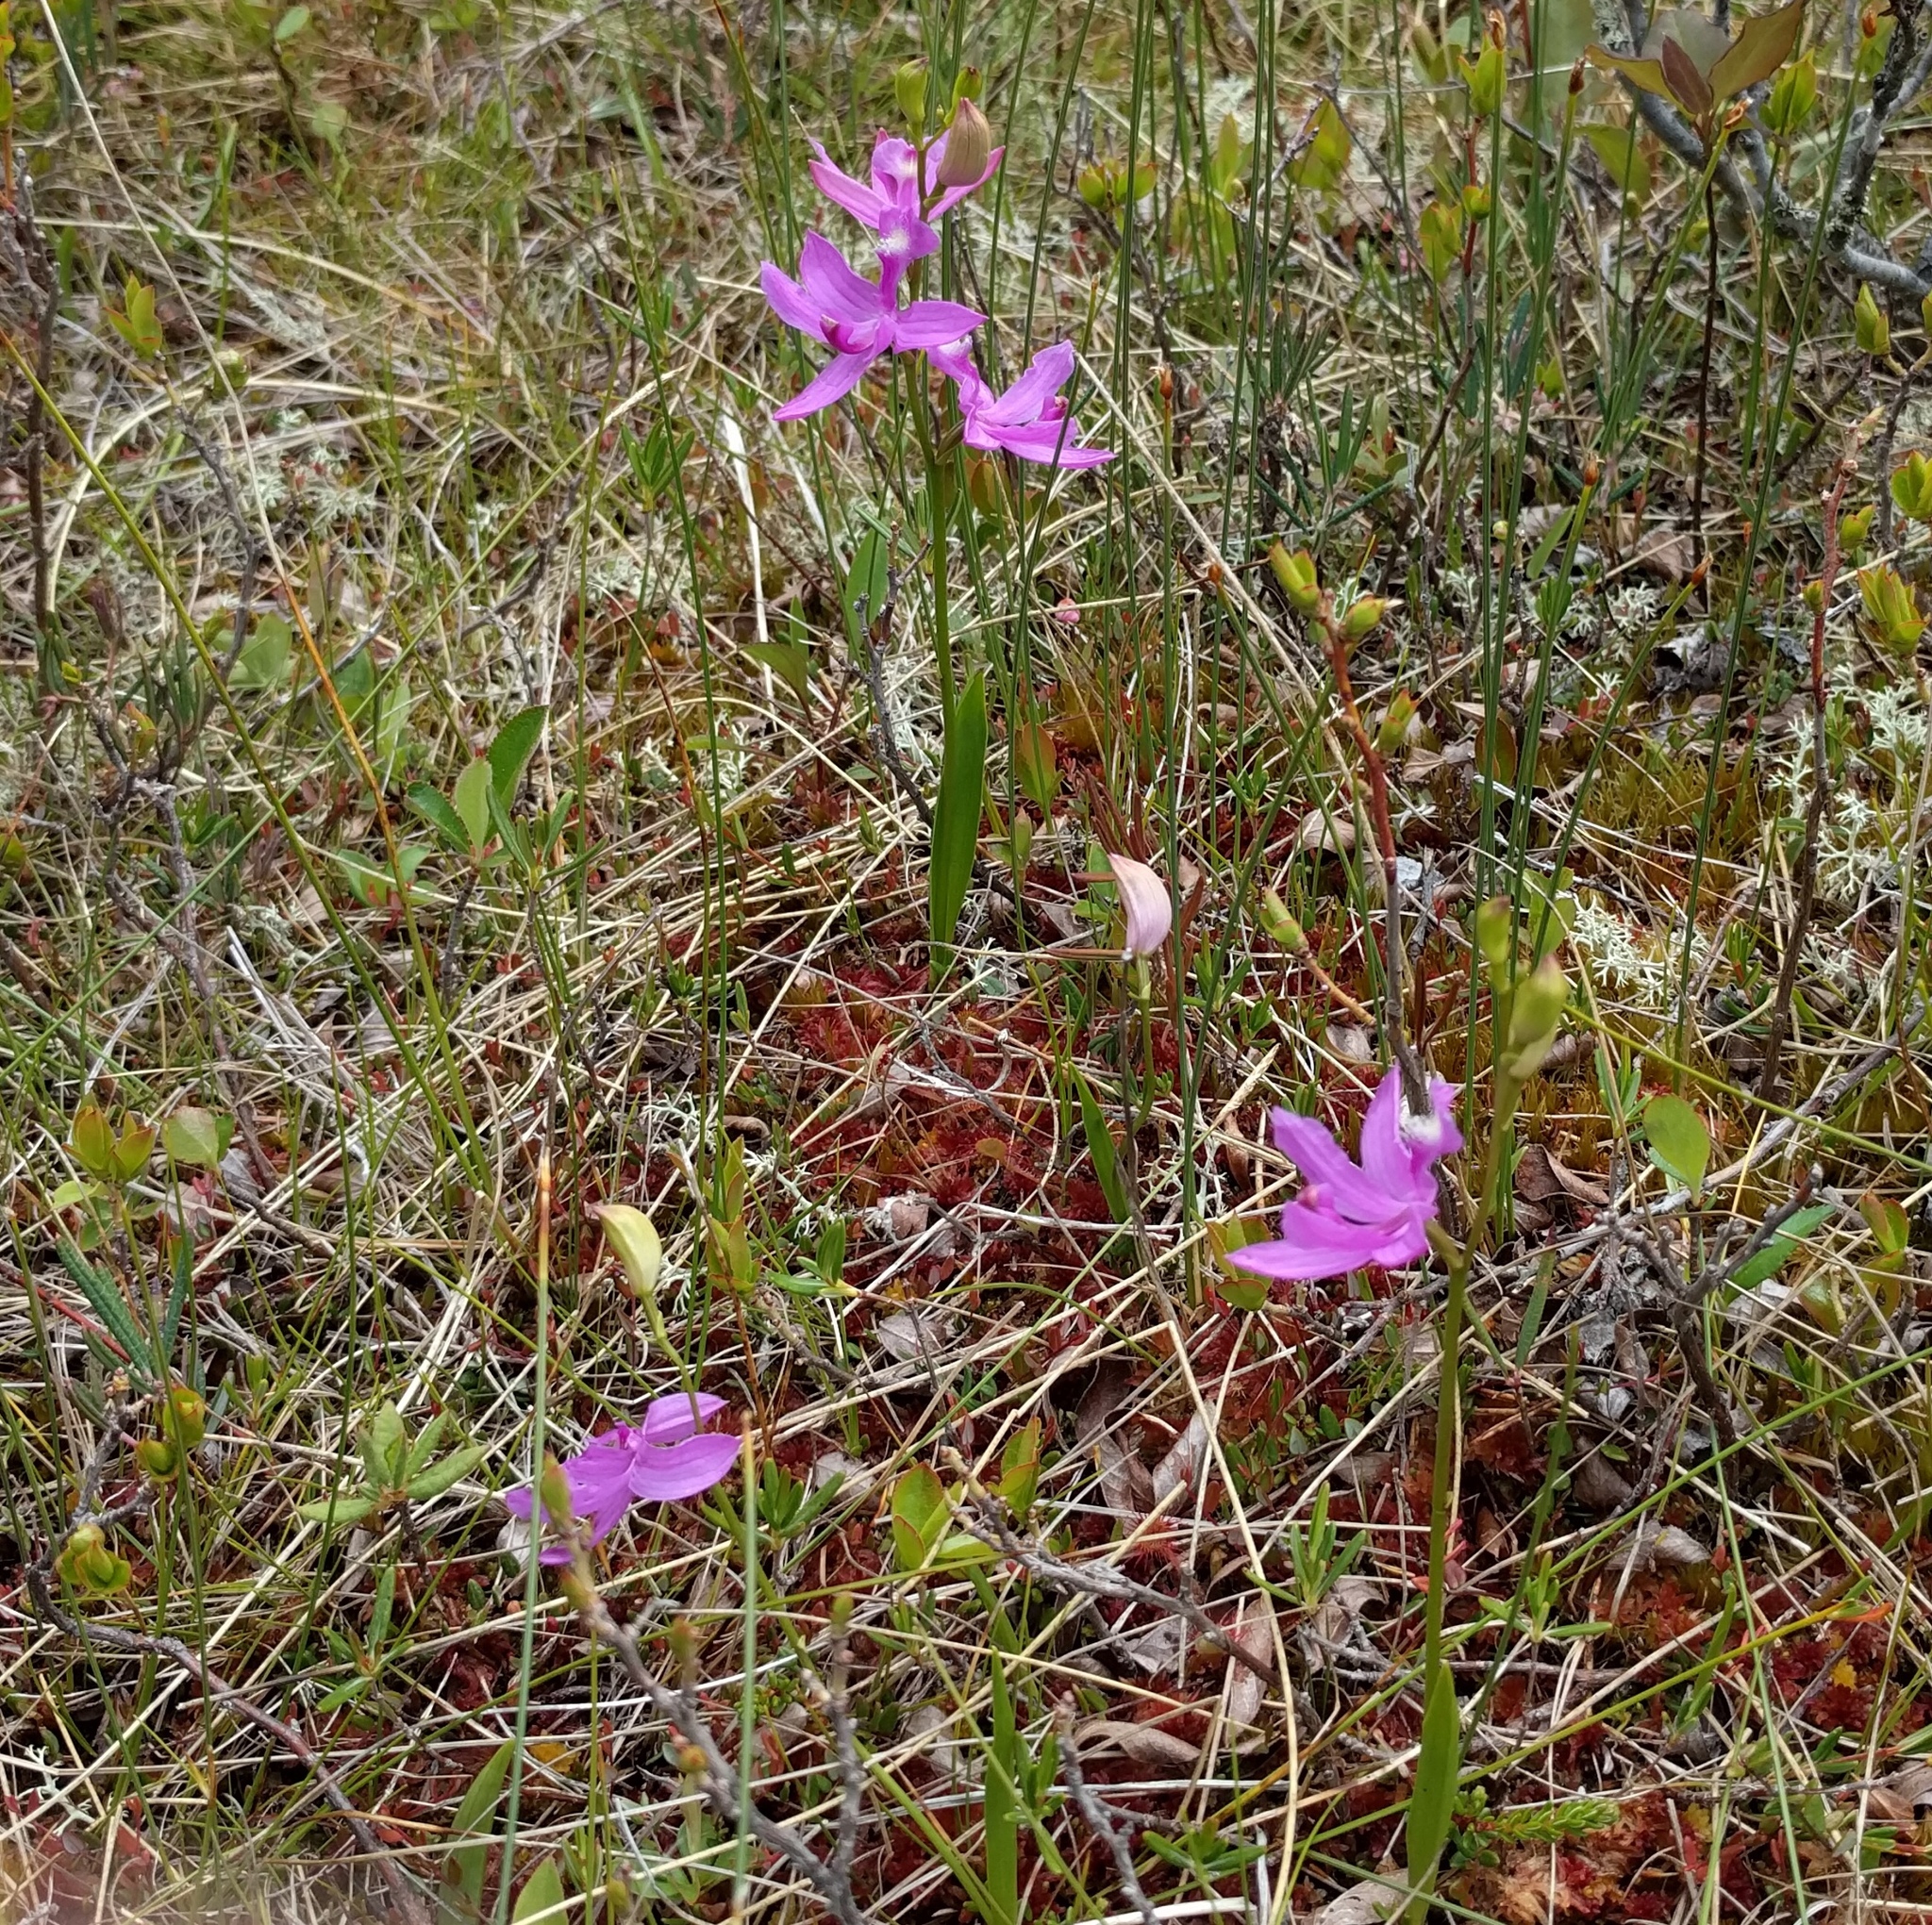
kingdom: Plantae
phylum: Tracheophyta
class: Liliopsida
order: Asparagales
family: Orchidaceae
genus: Calopogon
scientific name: Calopogon tuberosus
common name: Grass-pink
